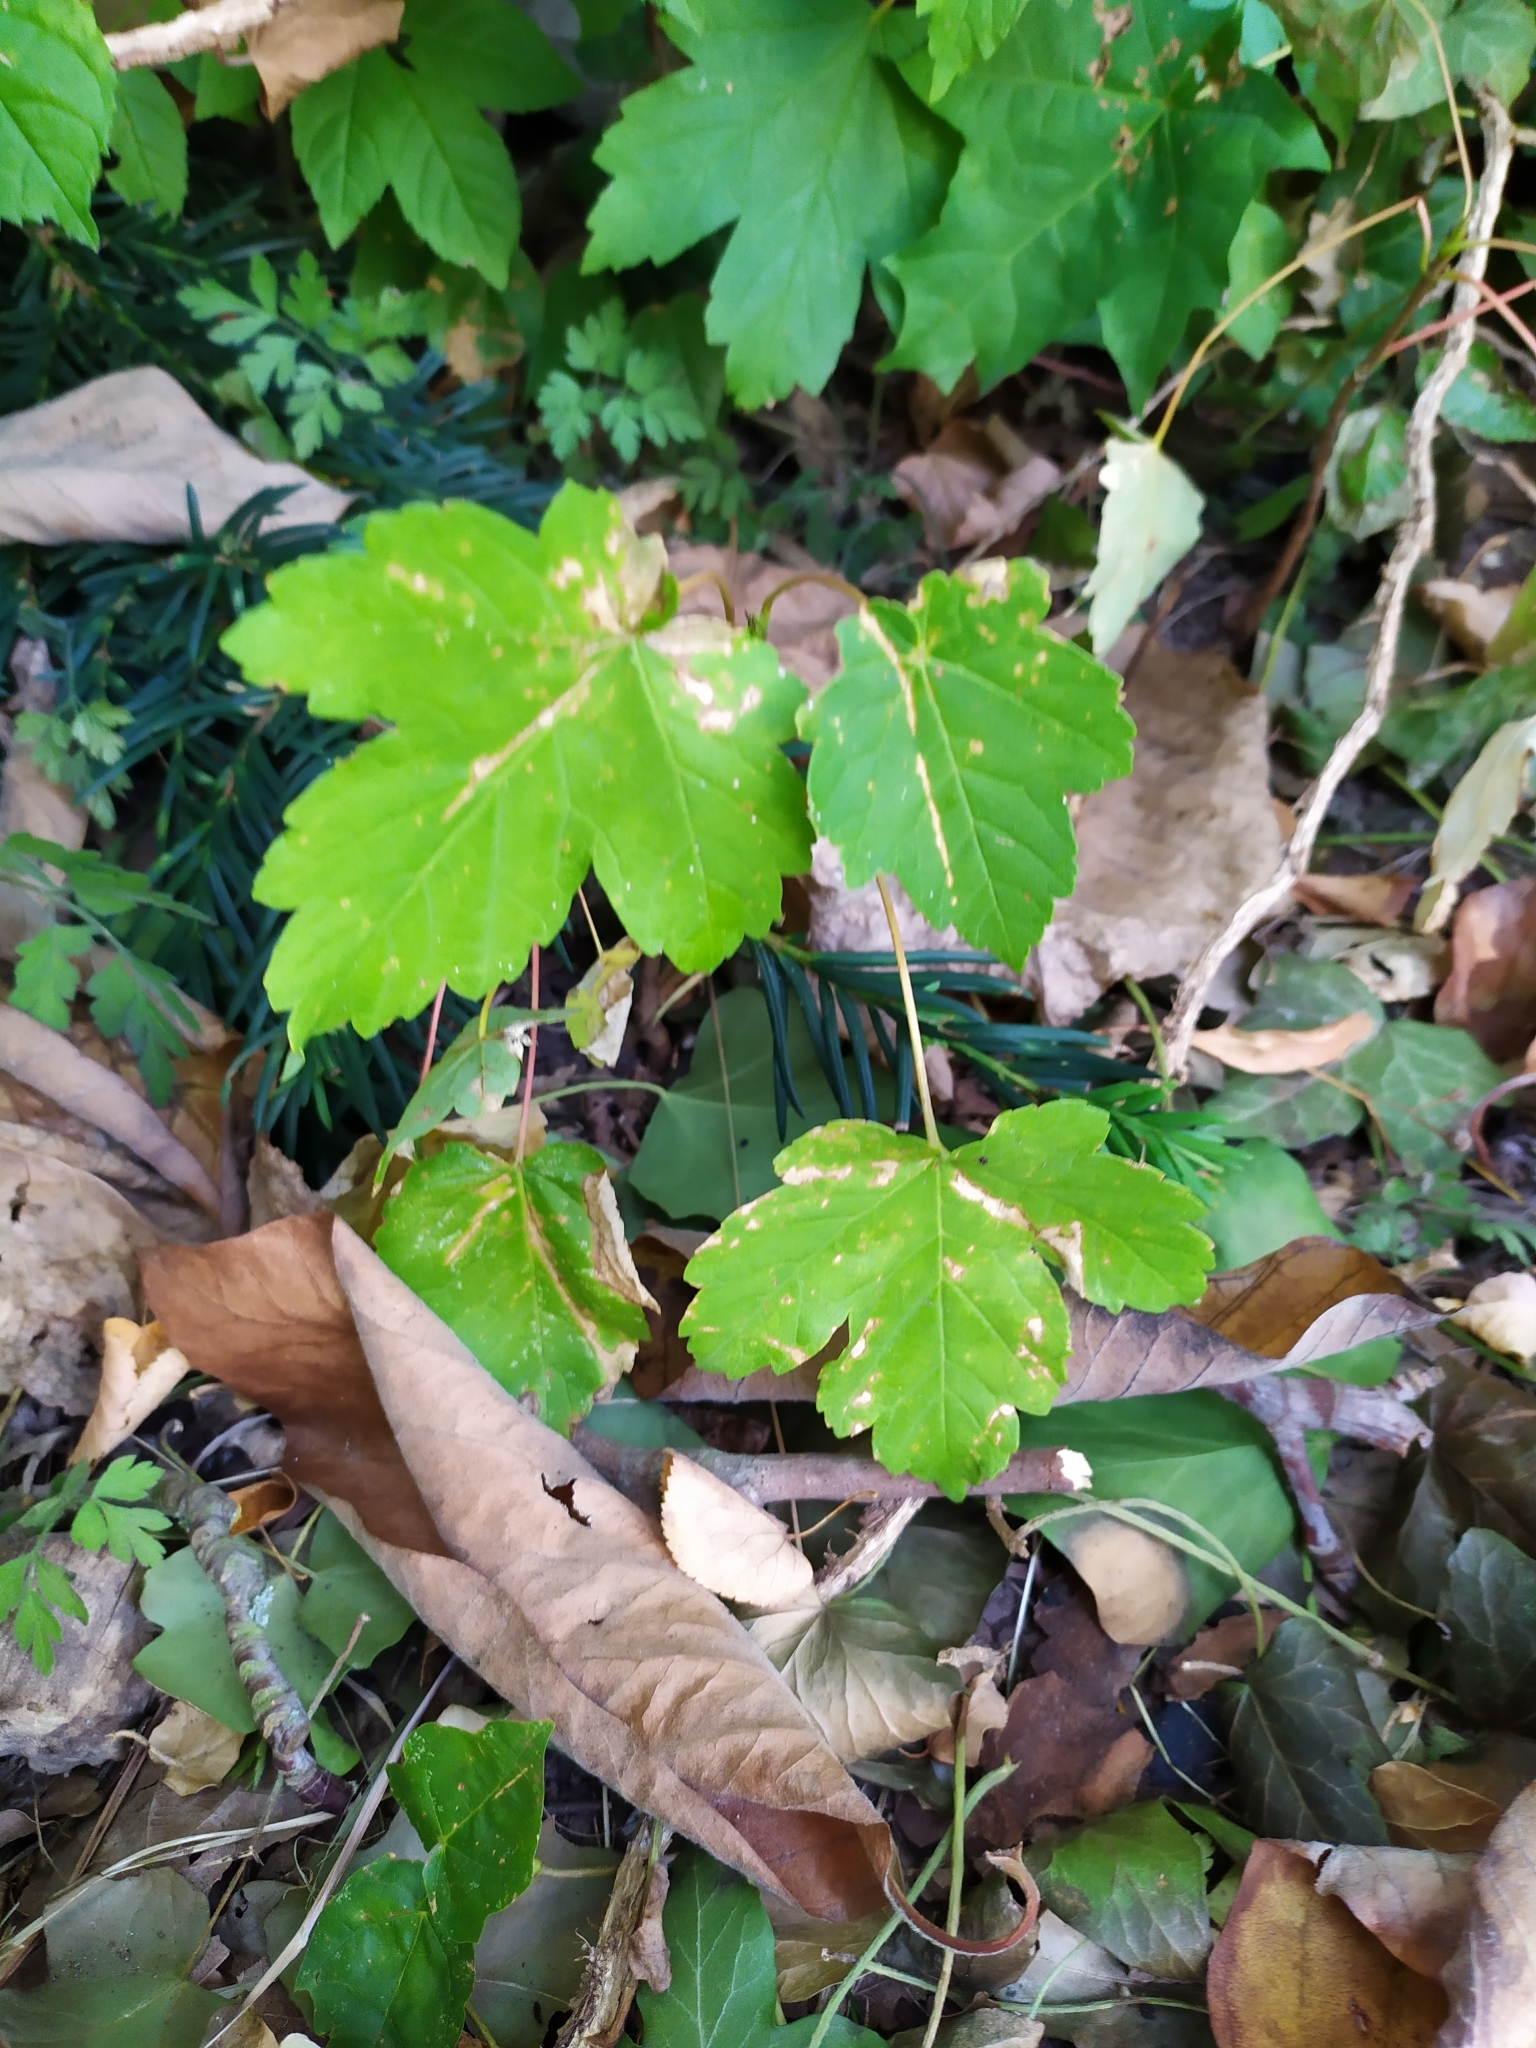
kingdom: Plantae
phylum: Tracheophyta
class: Magnoliopsida
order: Sapindales
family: Sapindaceae
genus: Acer
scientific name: Acer pseudoplatanus
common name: Sycamore
